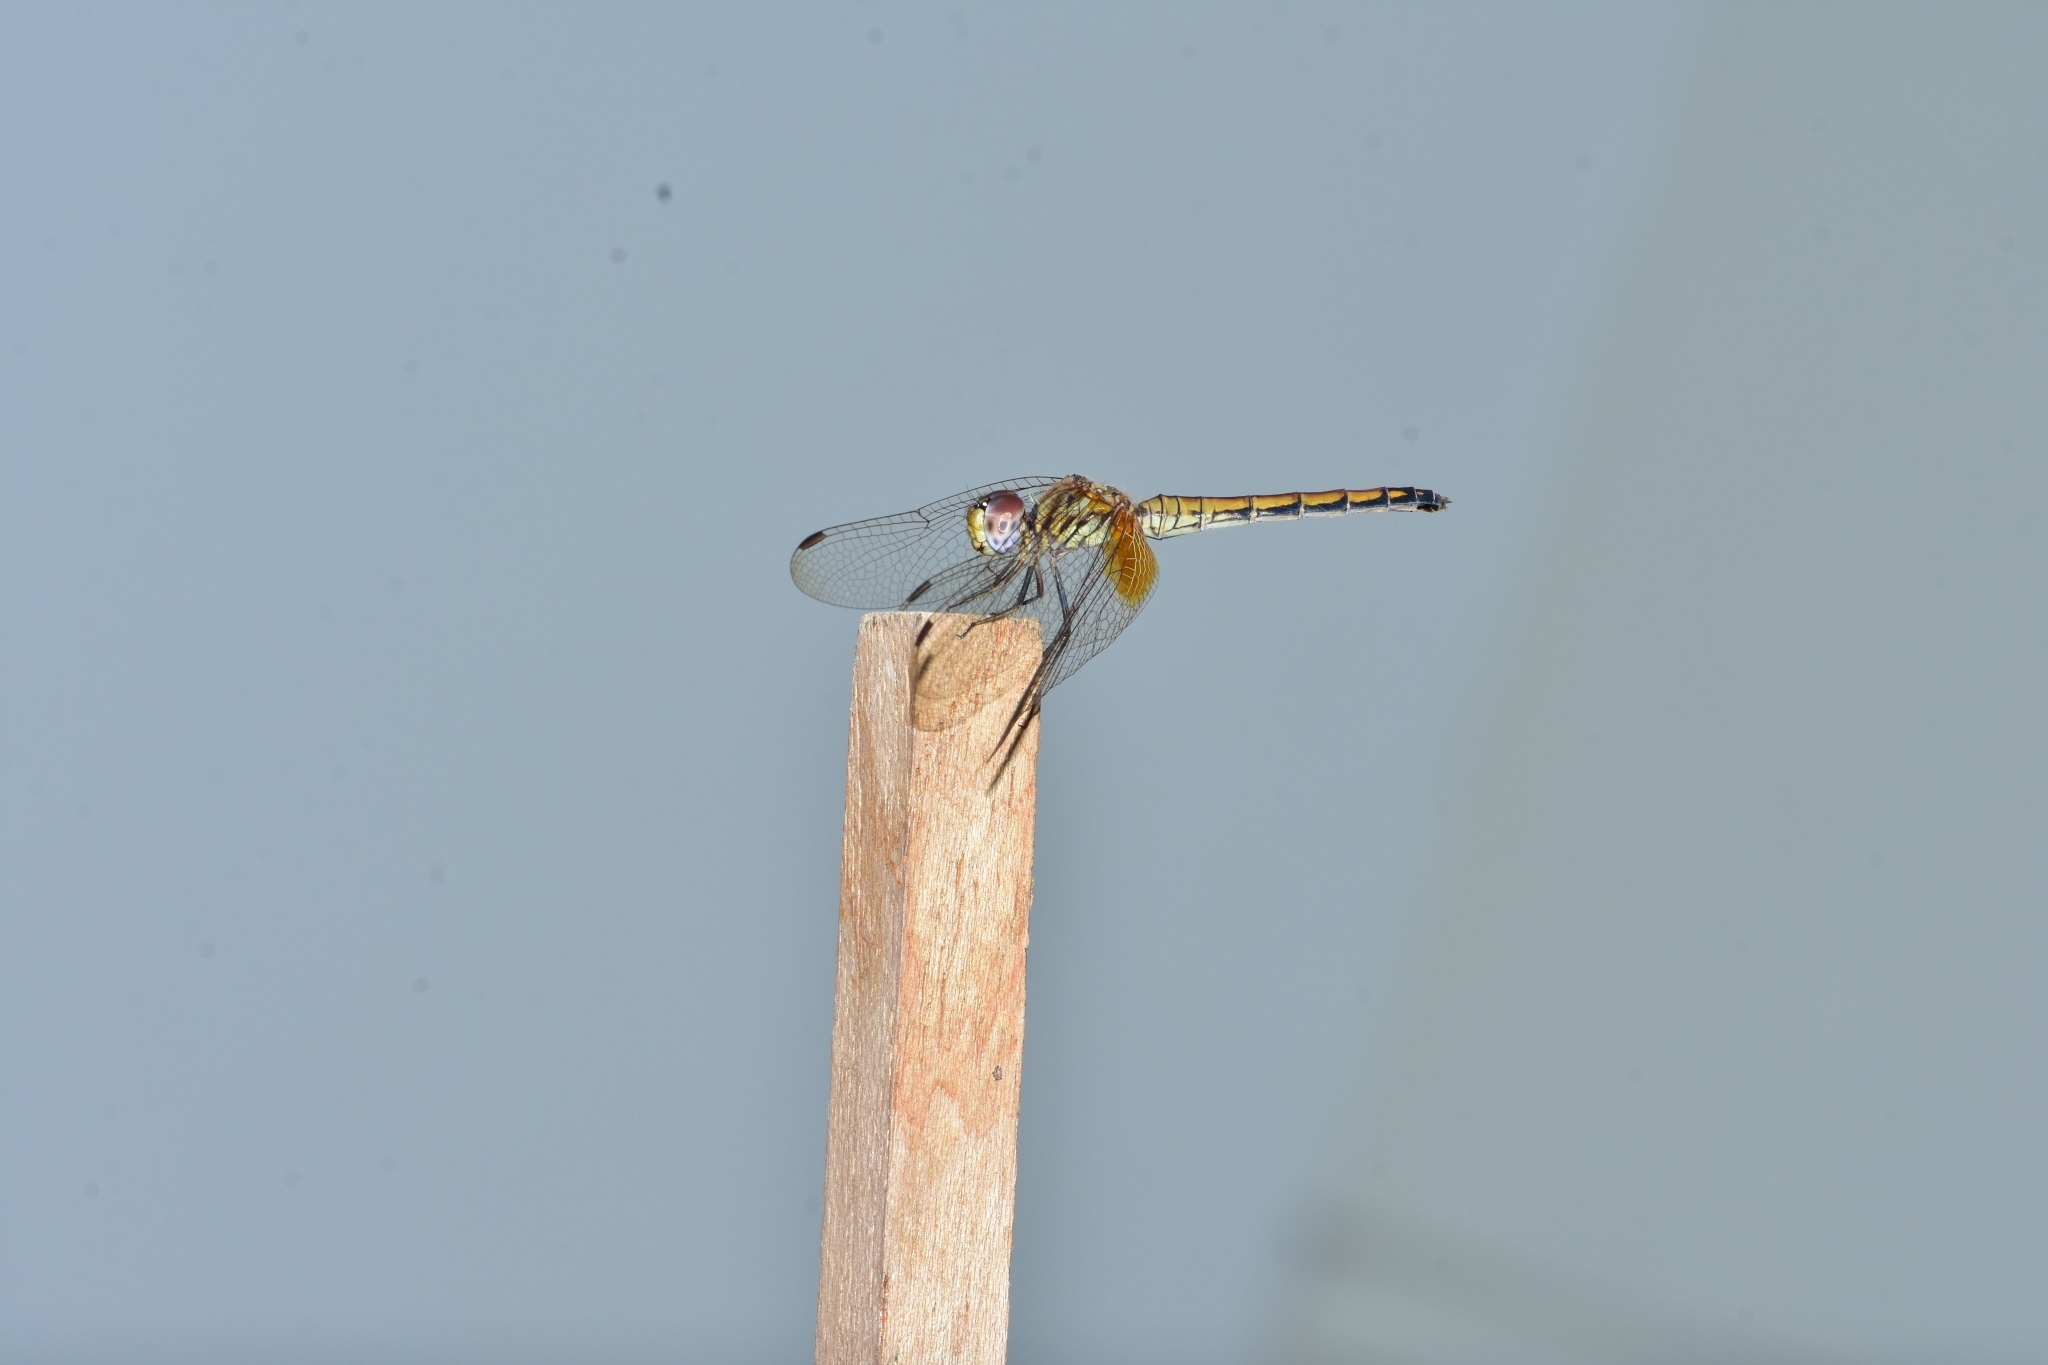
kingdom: Animalia
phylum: Arthropoda
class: Insecta
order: Odonata
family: Libellulidae
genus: Trithemis
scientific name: Trithemis aurora
